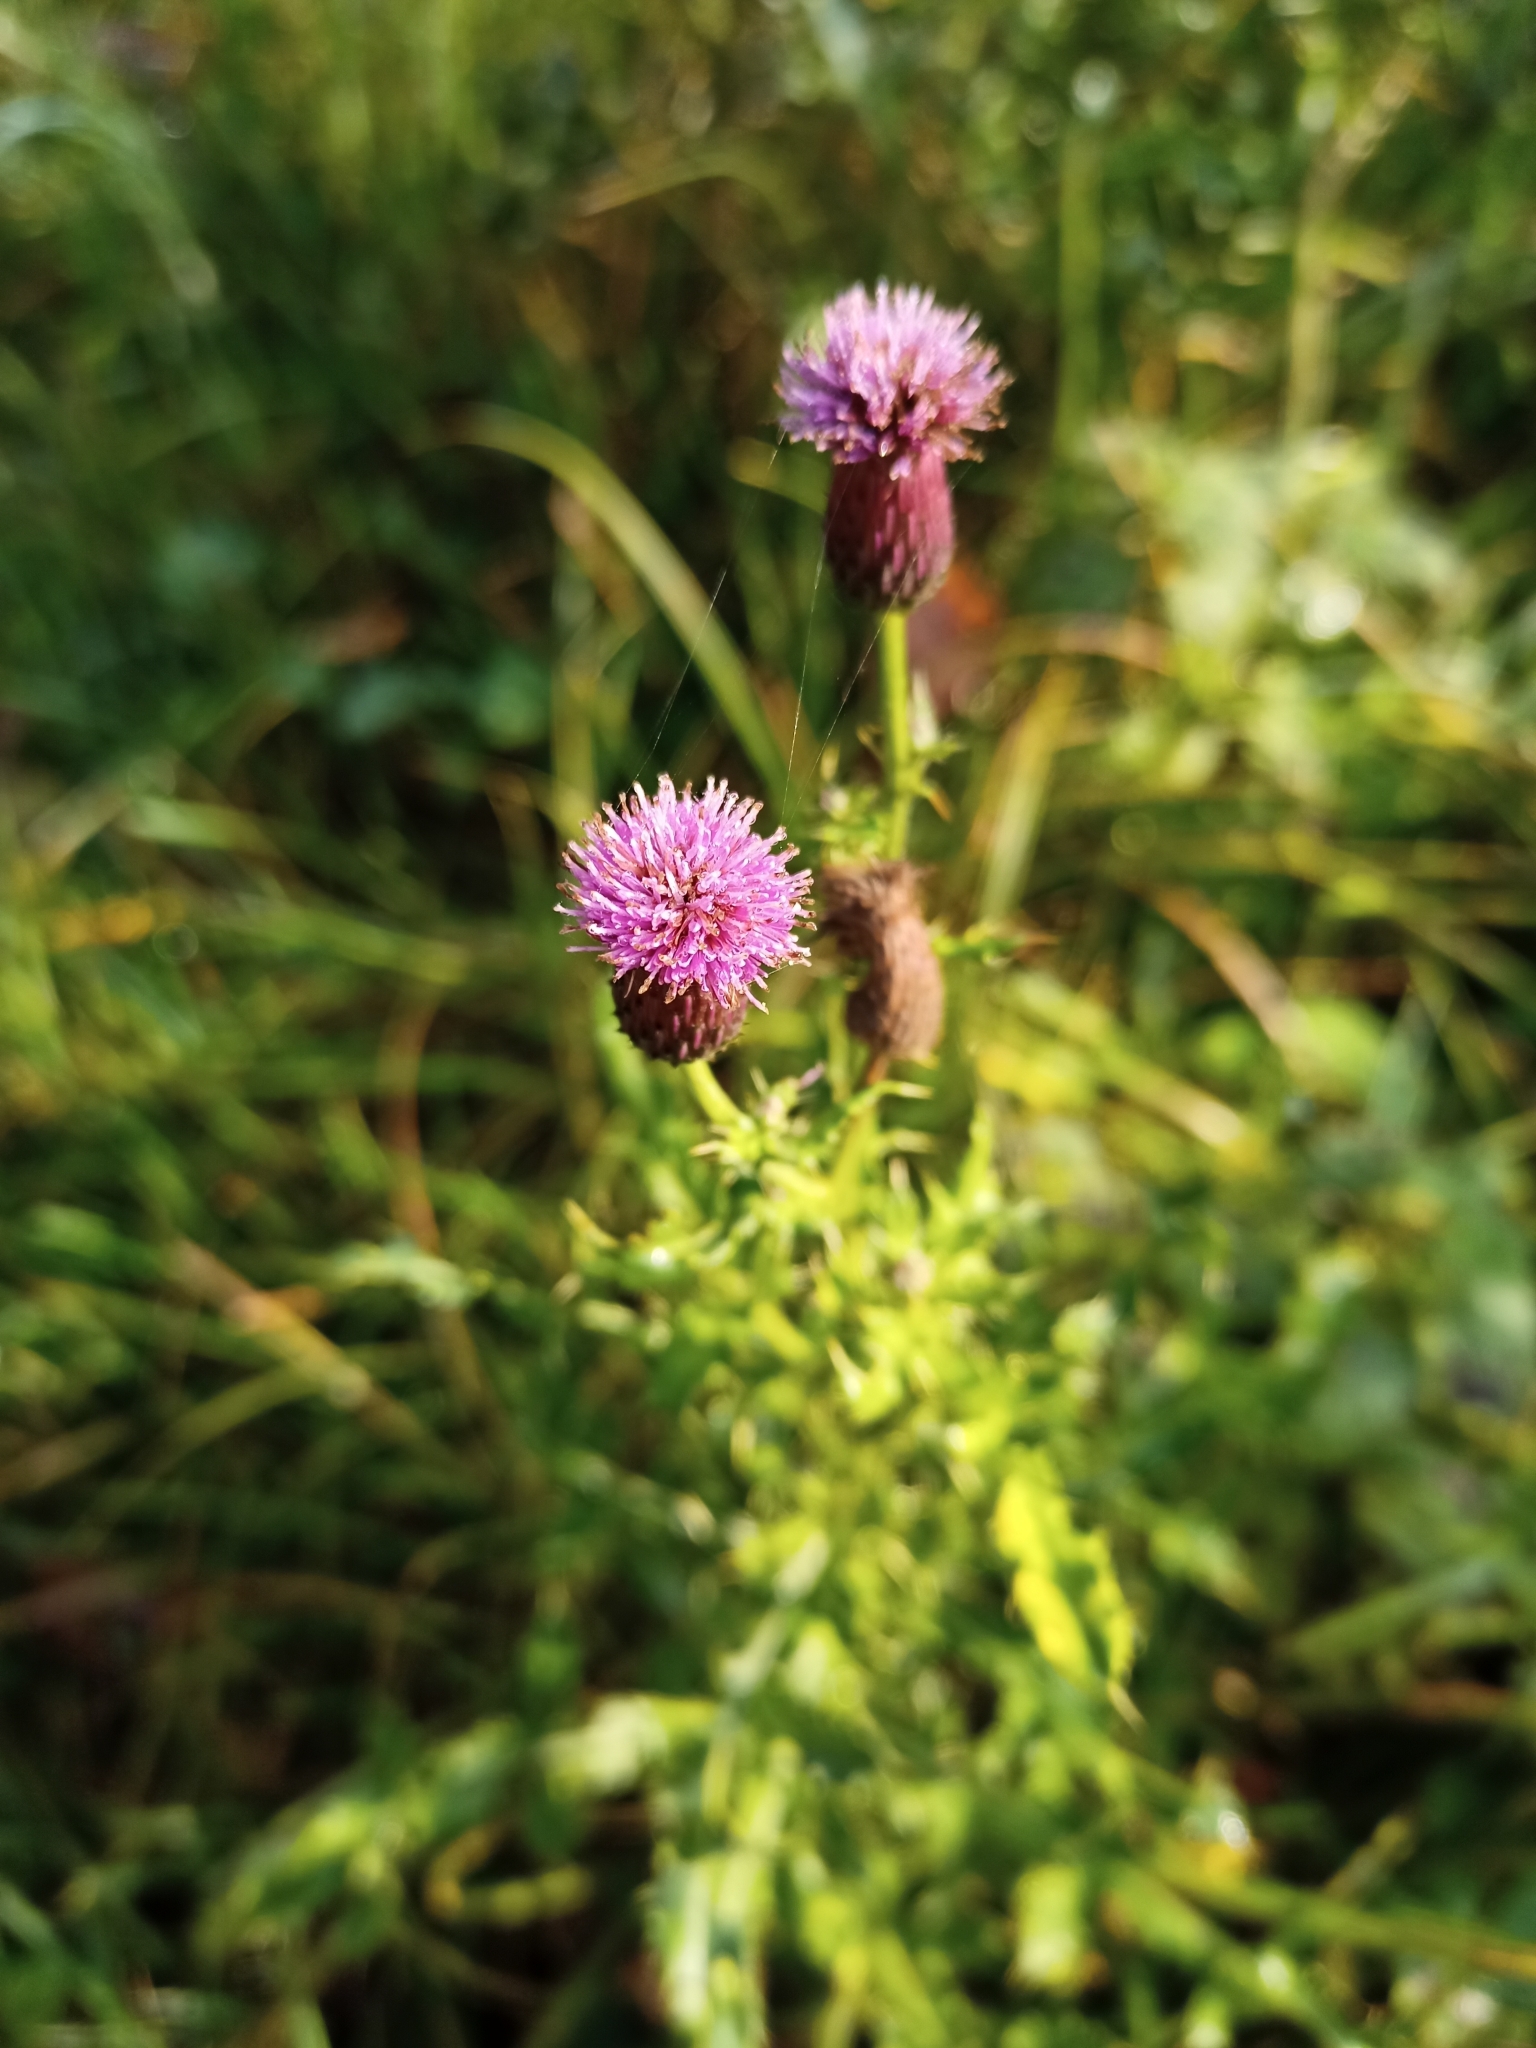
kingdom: Plantae
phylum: Tracheophyta
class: Magnoliopsida
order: Asterales
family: Asteraceae
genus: Cirsium
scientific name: Cirsium arvense
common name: Creeping thistle
